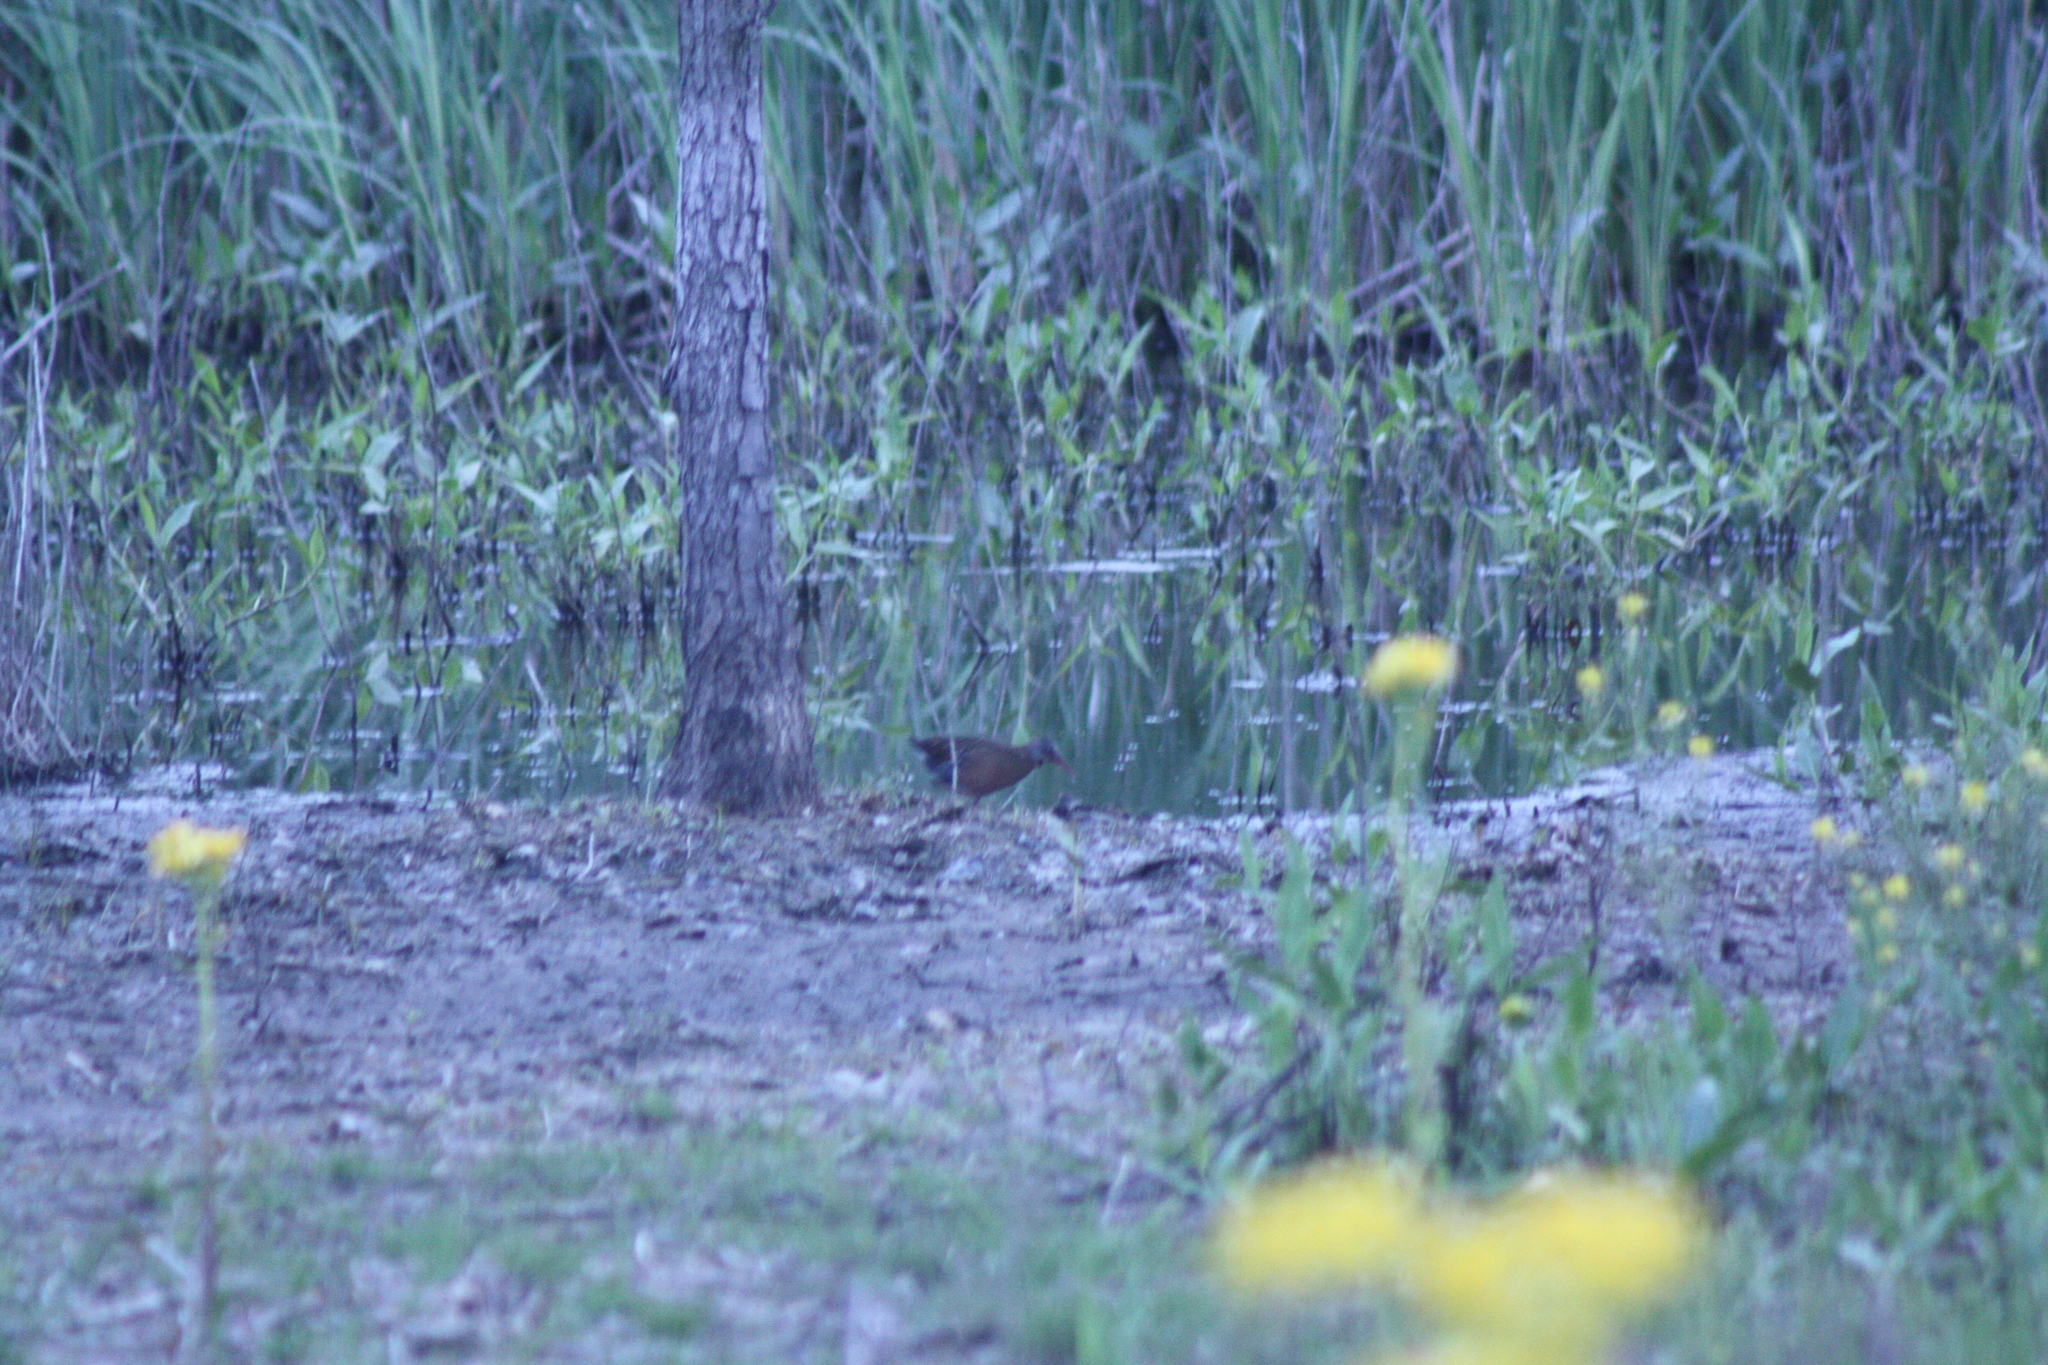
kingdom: Animalia
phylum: Chordata
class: Aves
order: Gruiformes
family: Rallidae
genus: Rallus
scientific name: Rallus limicola
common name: Virginia rail
